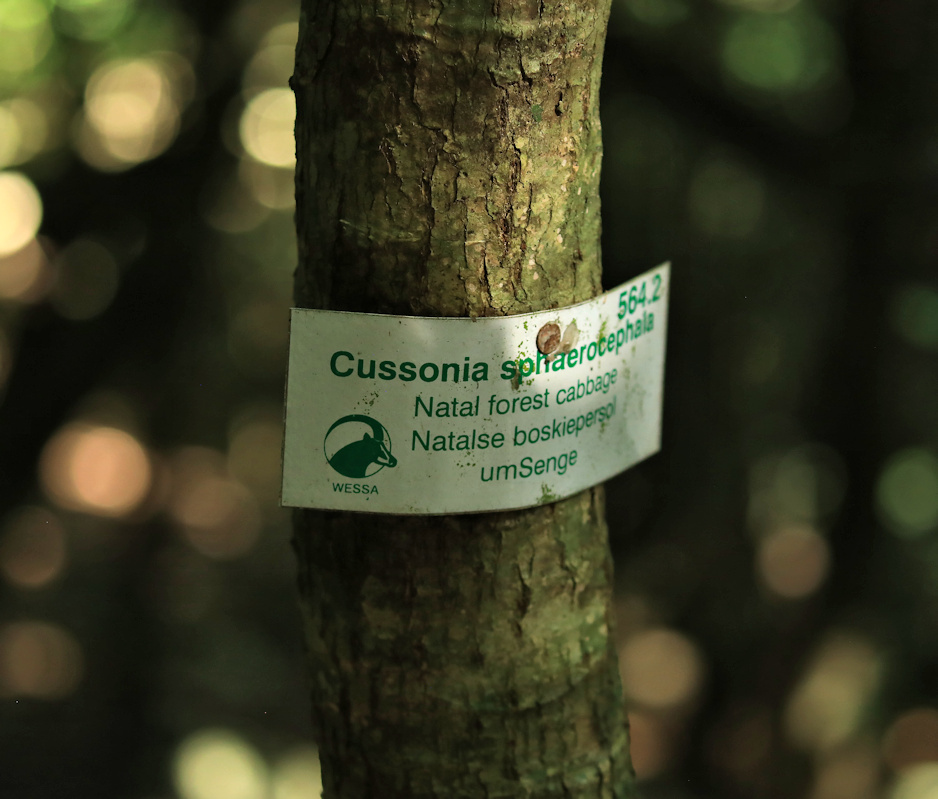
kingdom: Plantae
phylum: Tracheophyta
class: Magnoliopsida
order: Apiales
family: Araliaceae
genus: Cussonia
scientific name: Cussonia sphaerocephala
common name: Forest cabbage-tree
